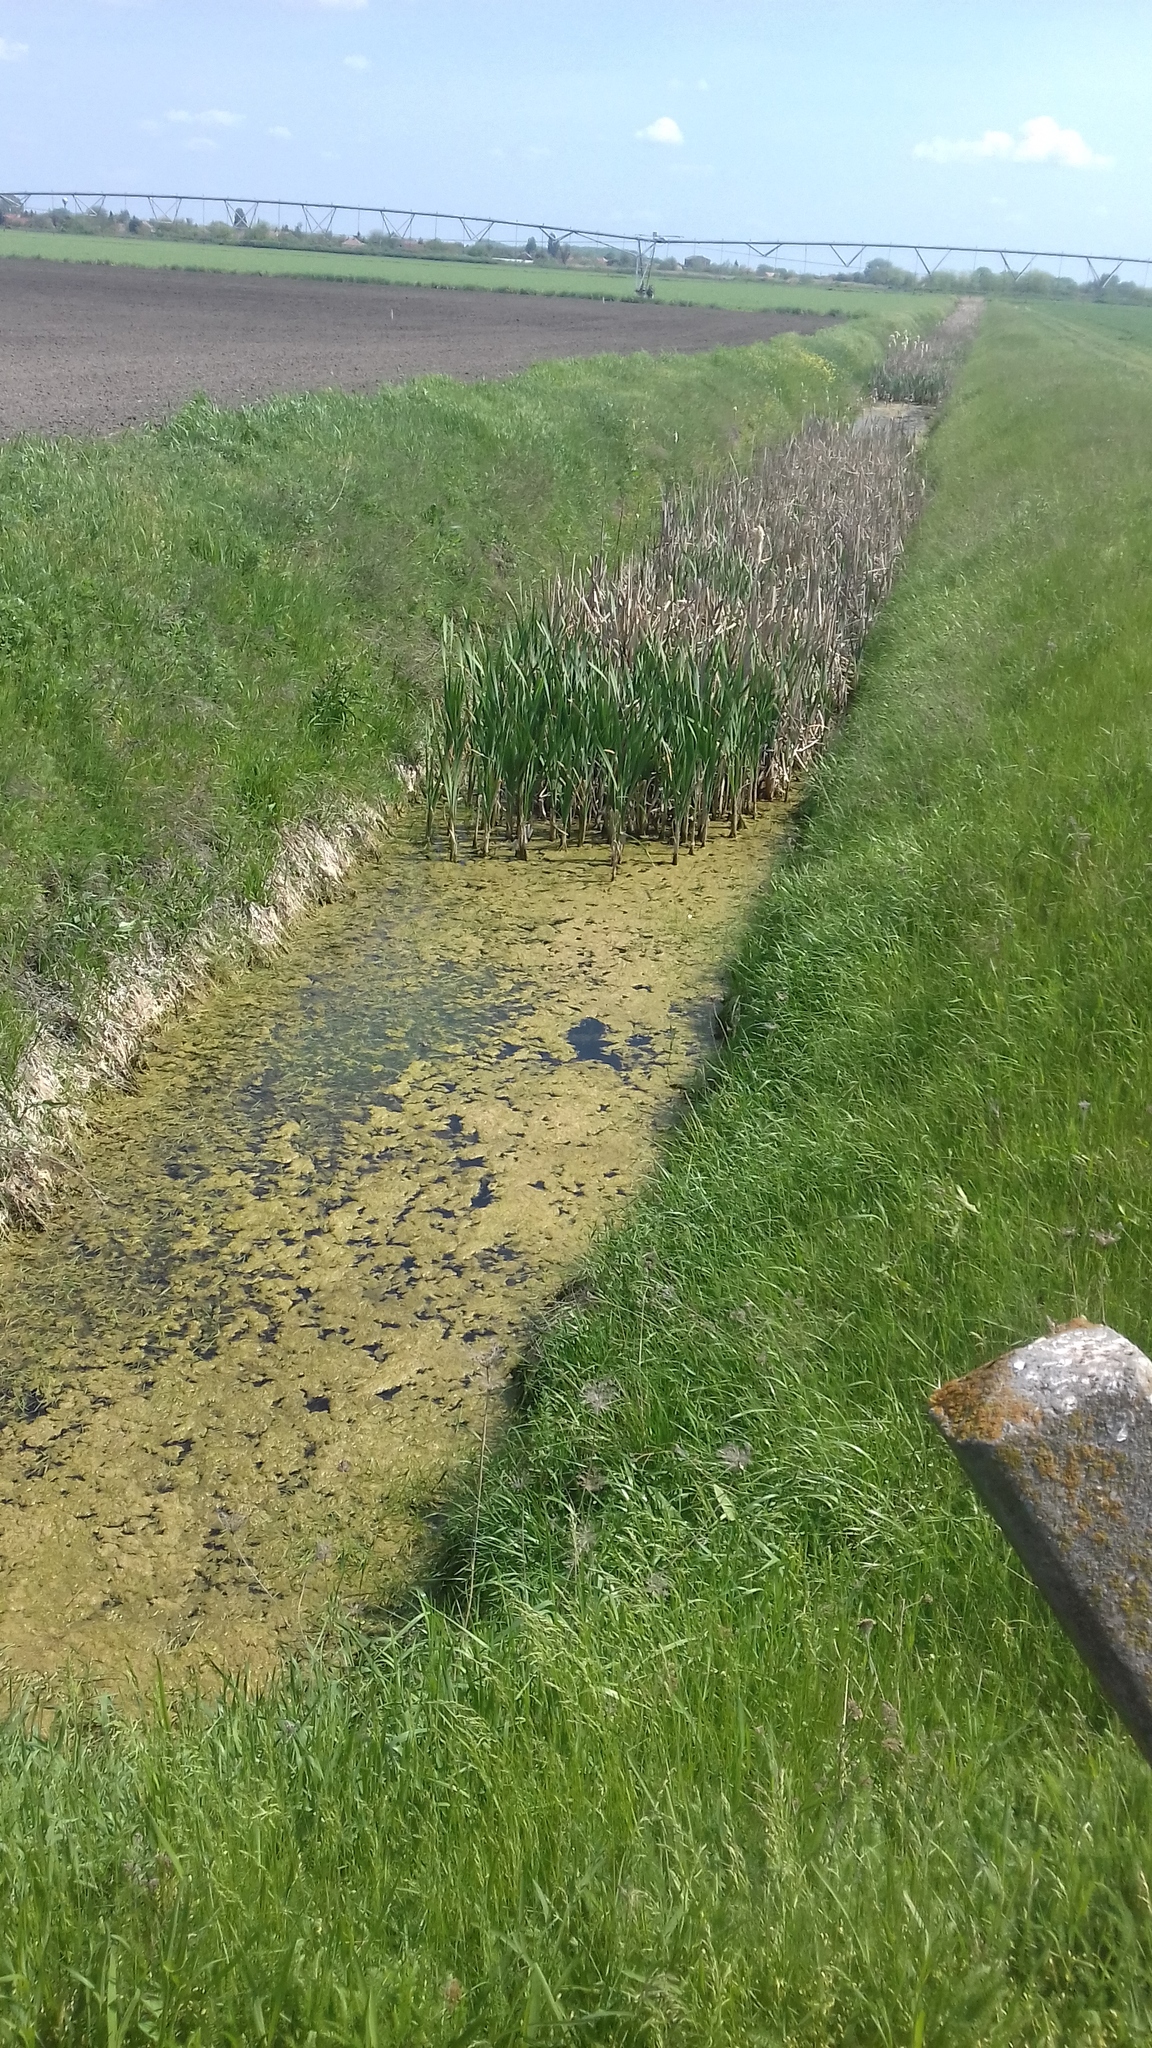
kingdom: Plantae
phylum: Tracheophyta
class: Liliopsida
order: Poales
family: Typhaceae
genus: Typha
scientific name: Typha latifolia
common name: Broadleaf cattail
